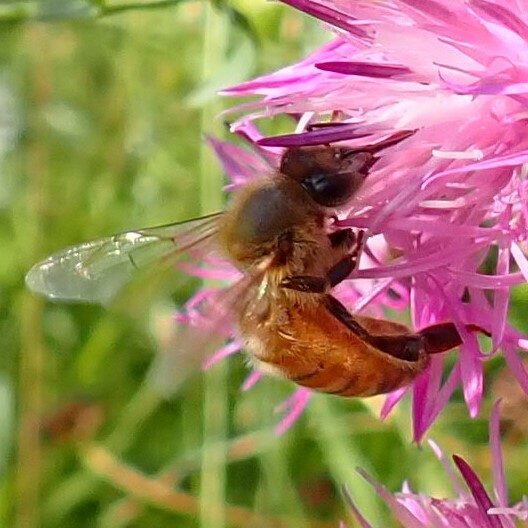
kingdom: Animalia
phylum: Arthropoda
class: Insecta
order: Hymenoptera
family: Apidae
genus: Apis
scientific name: Apis mellifera
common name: Honey bee
